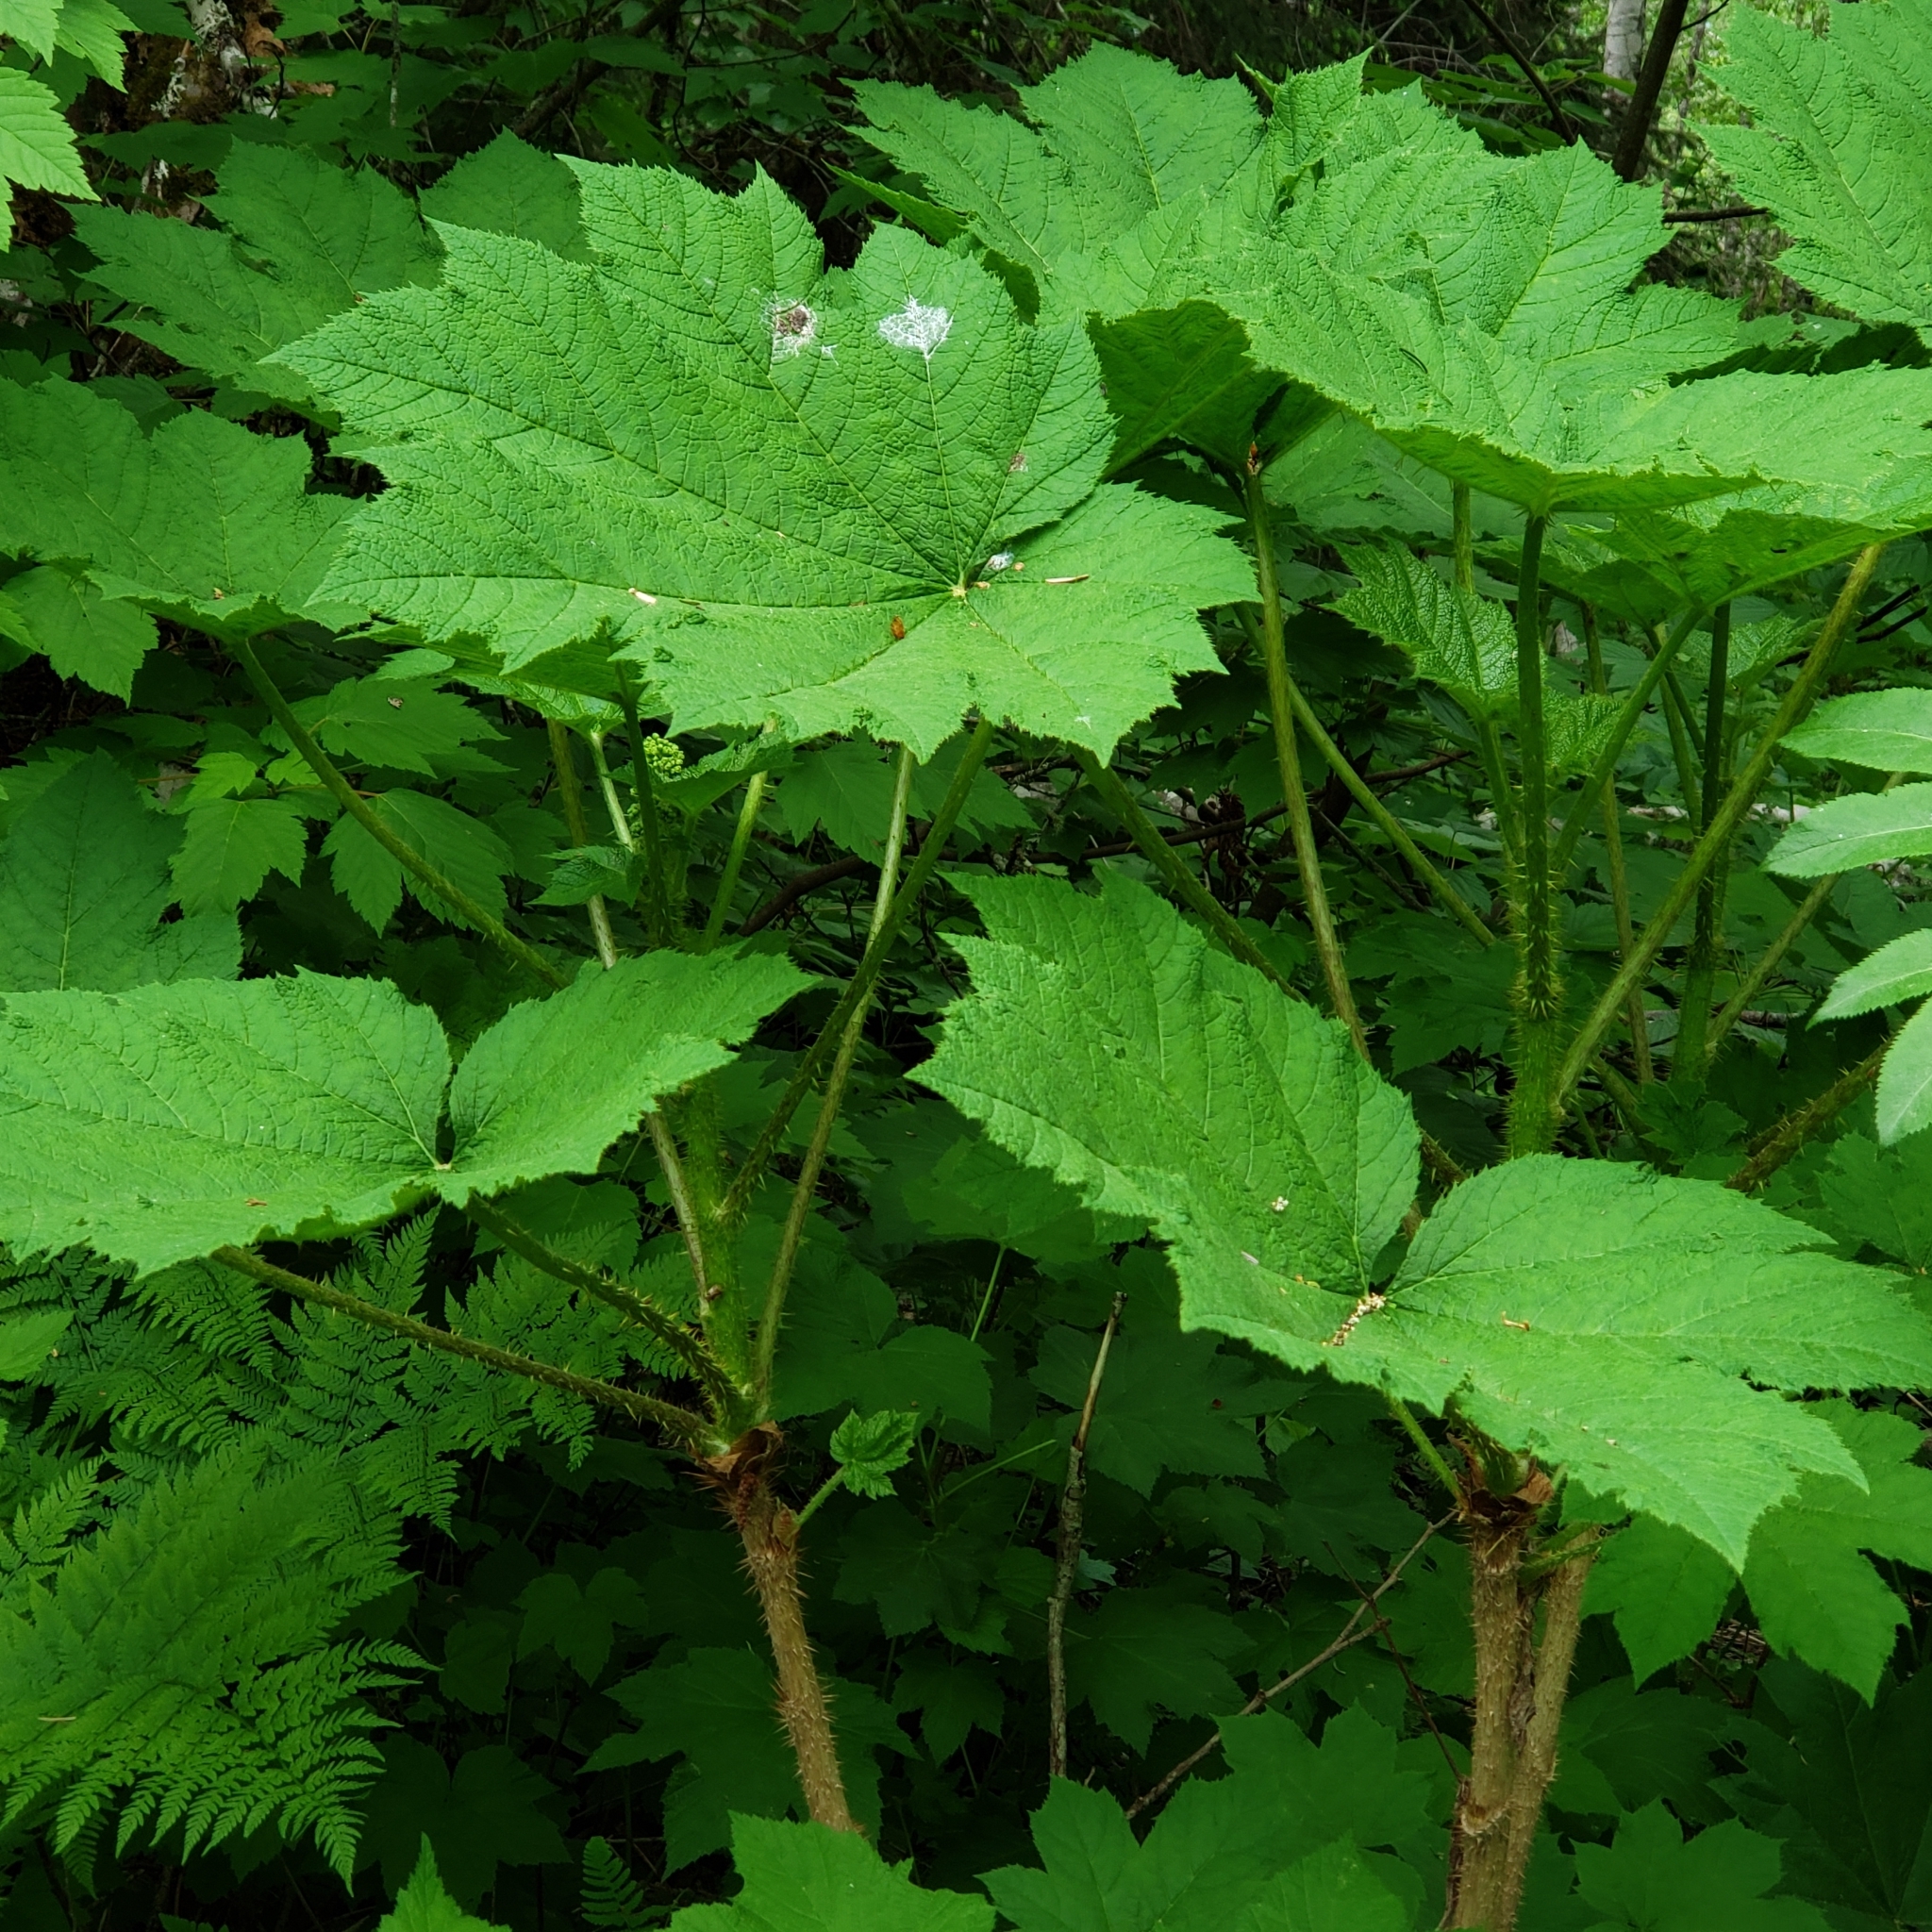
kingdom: Plantae
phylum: Tracheophyta
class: Magnoliopsida
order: Apiales
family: Araliaceae
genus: Oplopanax
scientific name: Oplopanax horridus
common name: Devil's walking-stick
